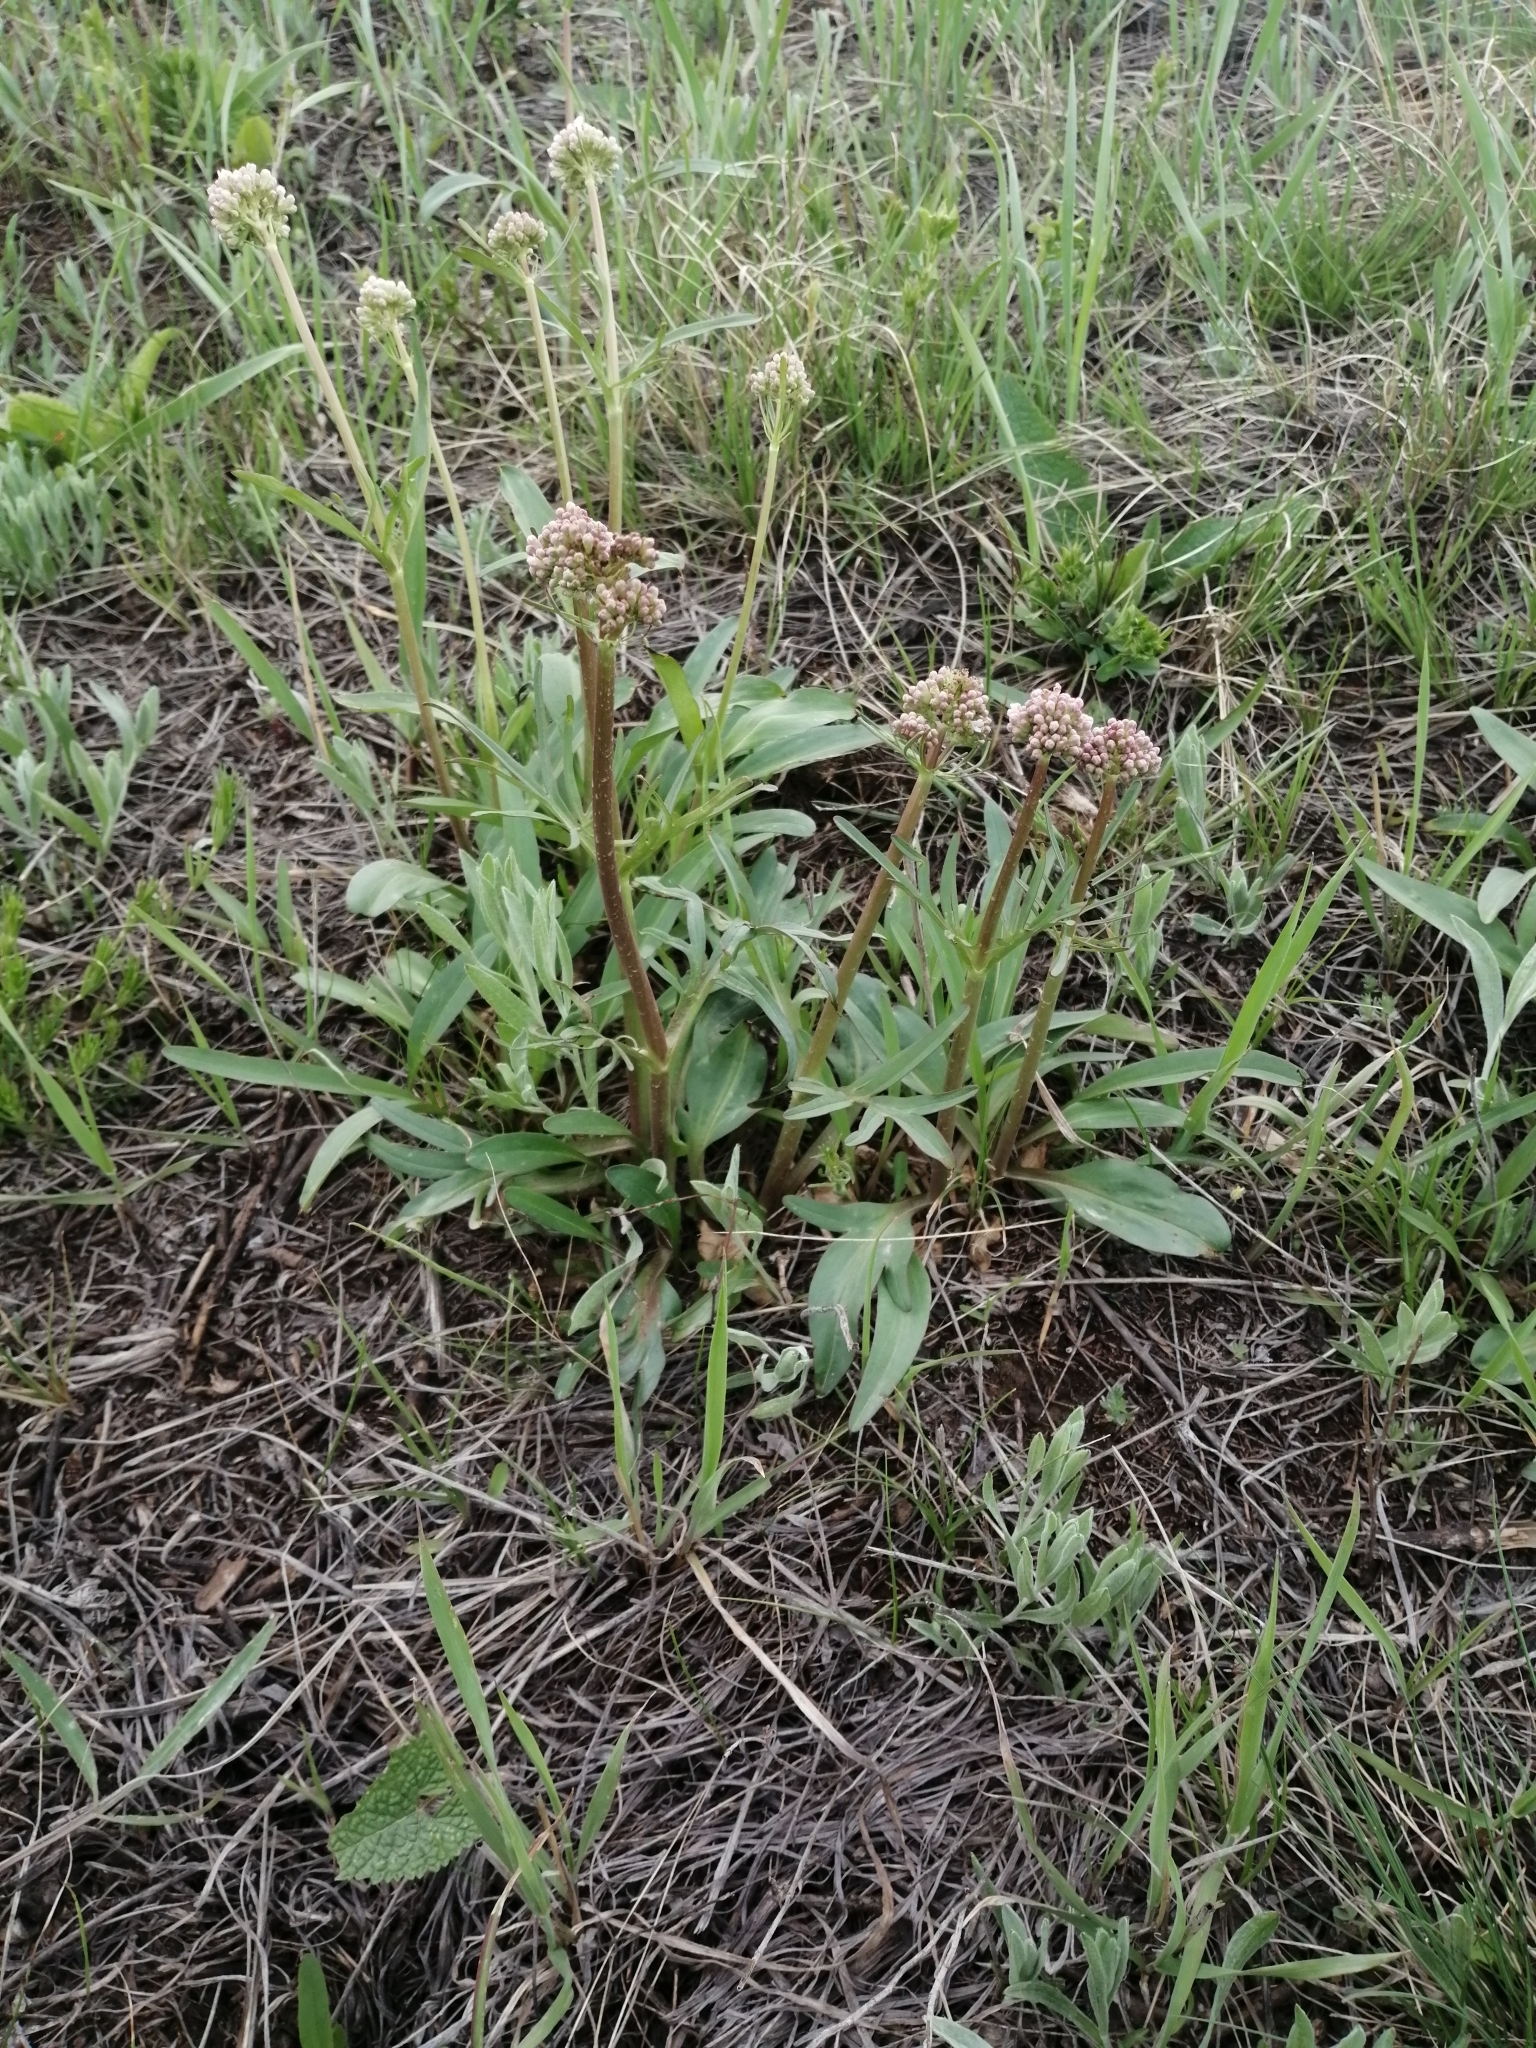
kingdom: Plantae
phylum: Tracheophyta
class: Magnoliopsida
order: Dipsacales
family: Caprifoliaceae
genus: Valeriana
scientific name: Valeriana tuberosa
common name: Tuberous valerian
